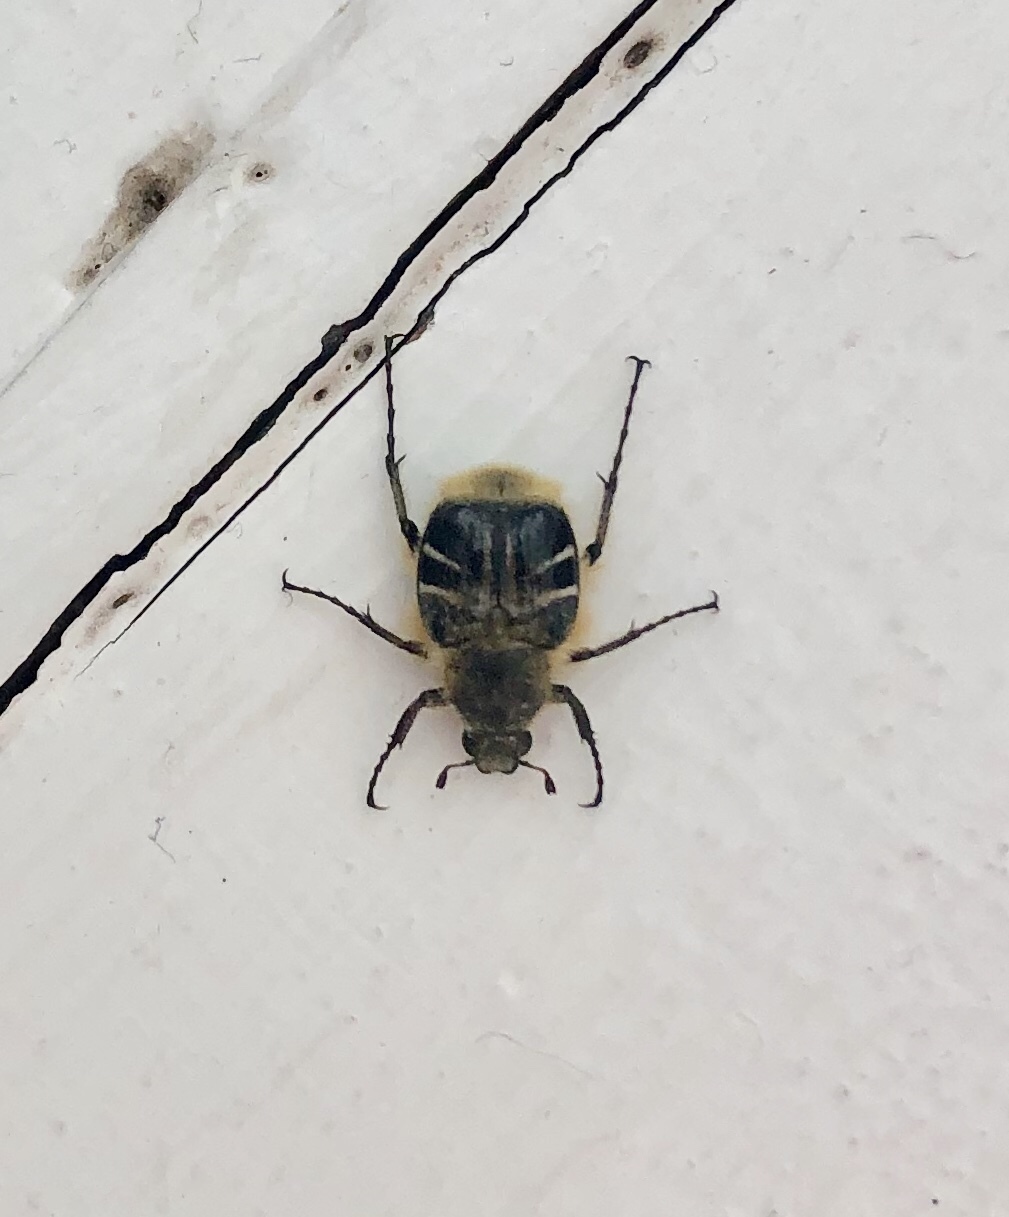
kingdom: Animalia
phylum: Arthropoda
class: Insecta
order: Coleoptera
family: Scarabaeidae
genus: Trichiotinus
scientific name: Trichiotinus assimilis
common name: Bee-mimic beetle
